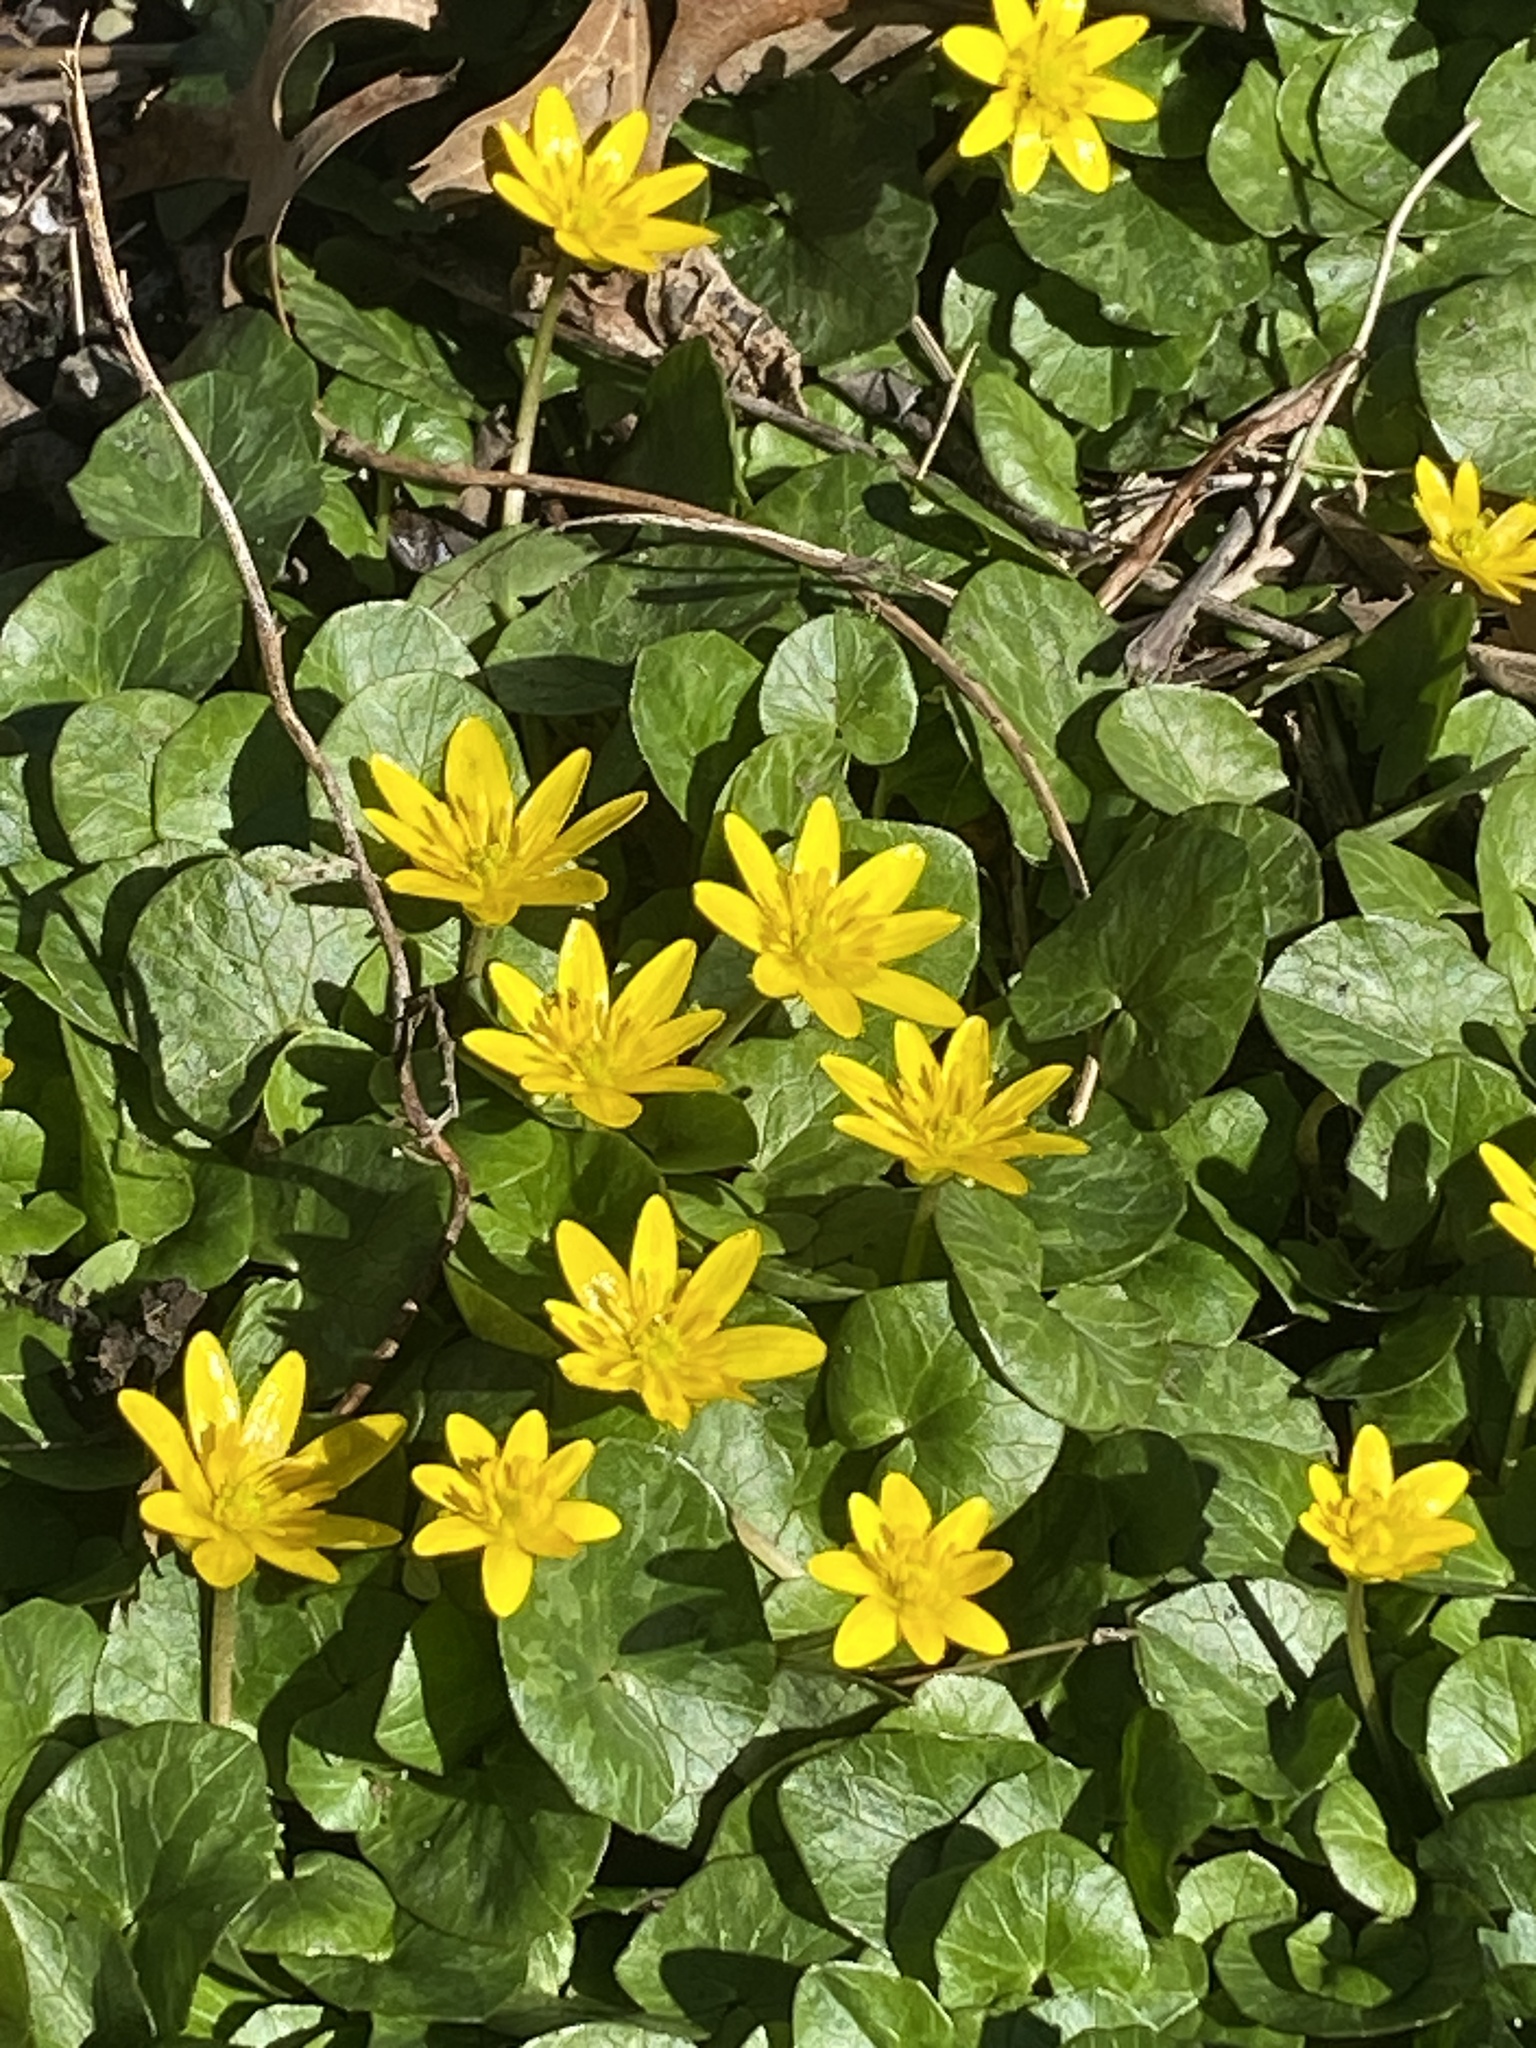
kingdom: Plantae
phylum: Tracheophyta
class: Magnoliopsida
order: Ranunculales
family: Ranunculaceae
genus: Ficaria
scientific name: Ficaria verna
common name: Lesser celandine
